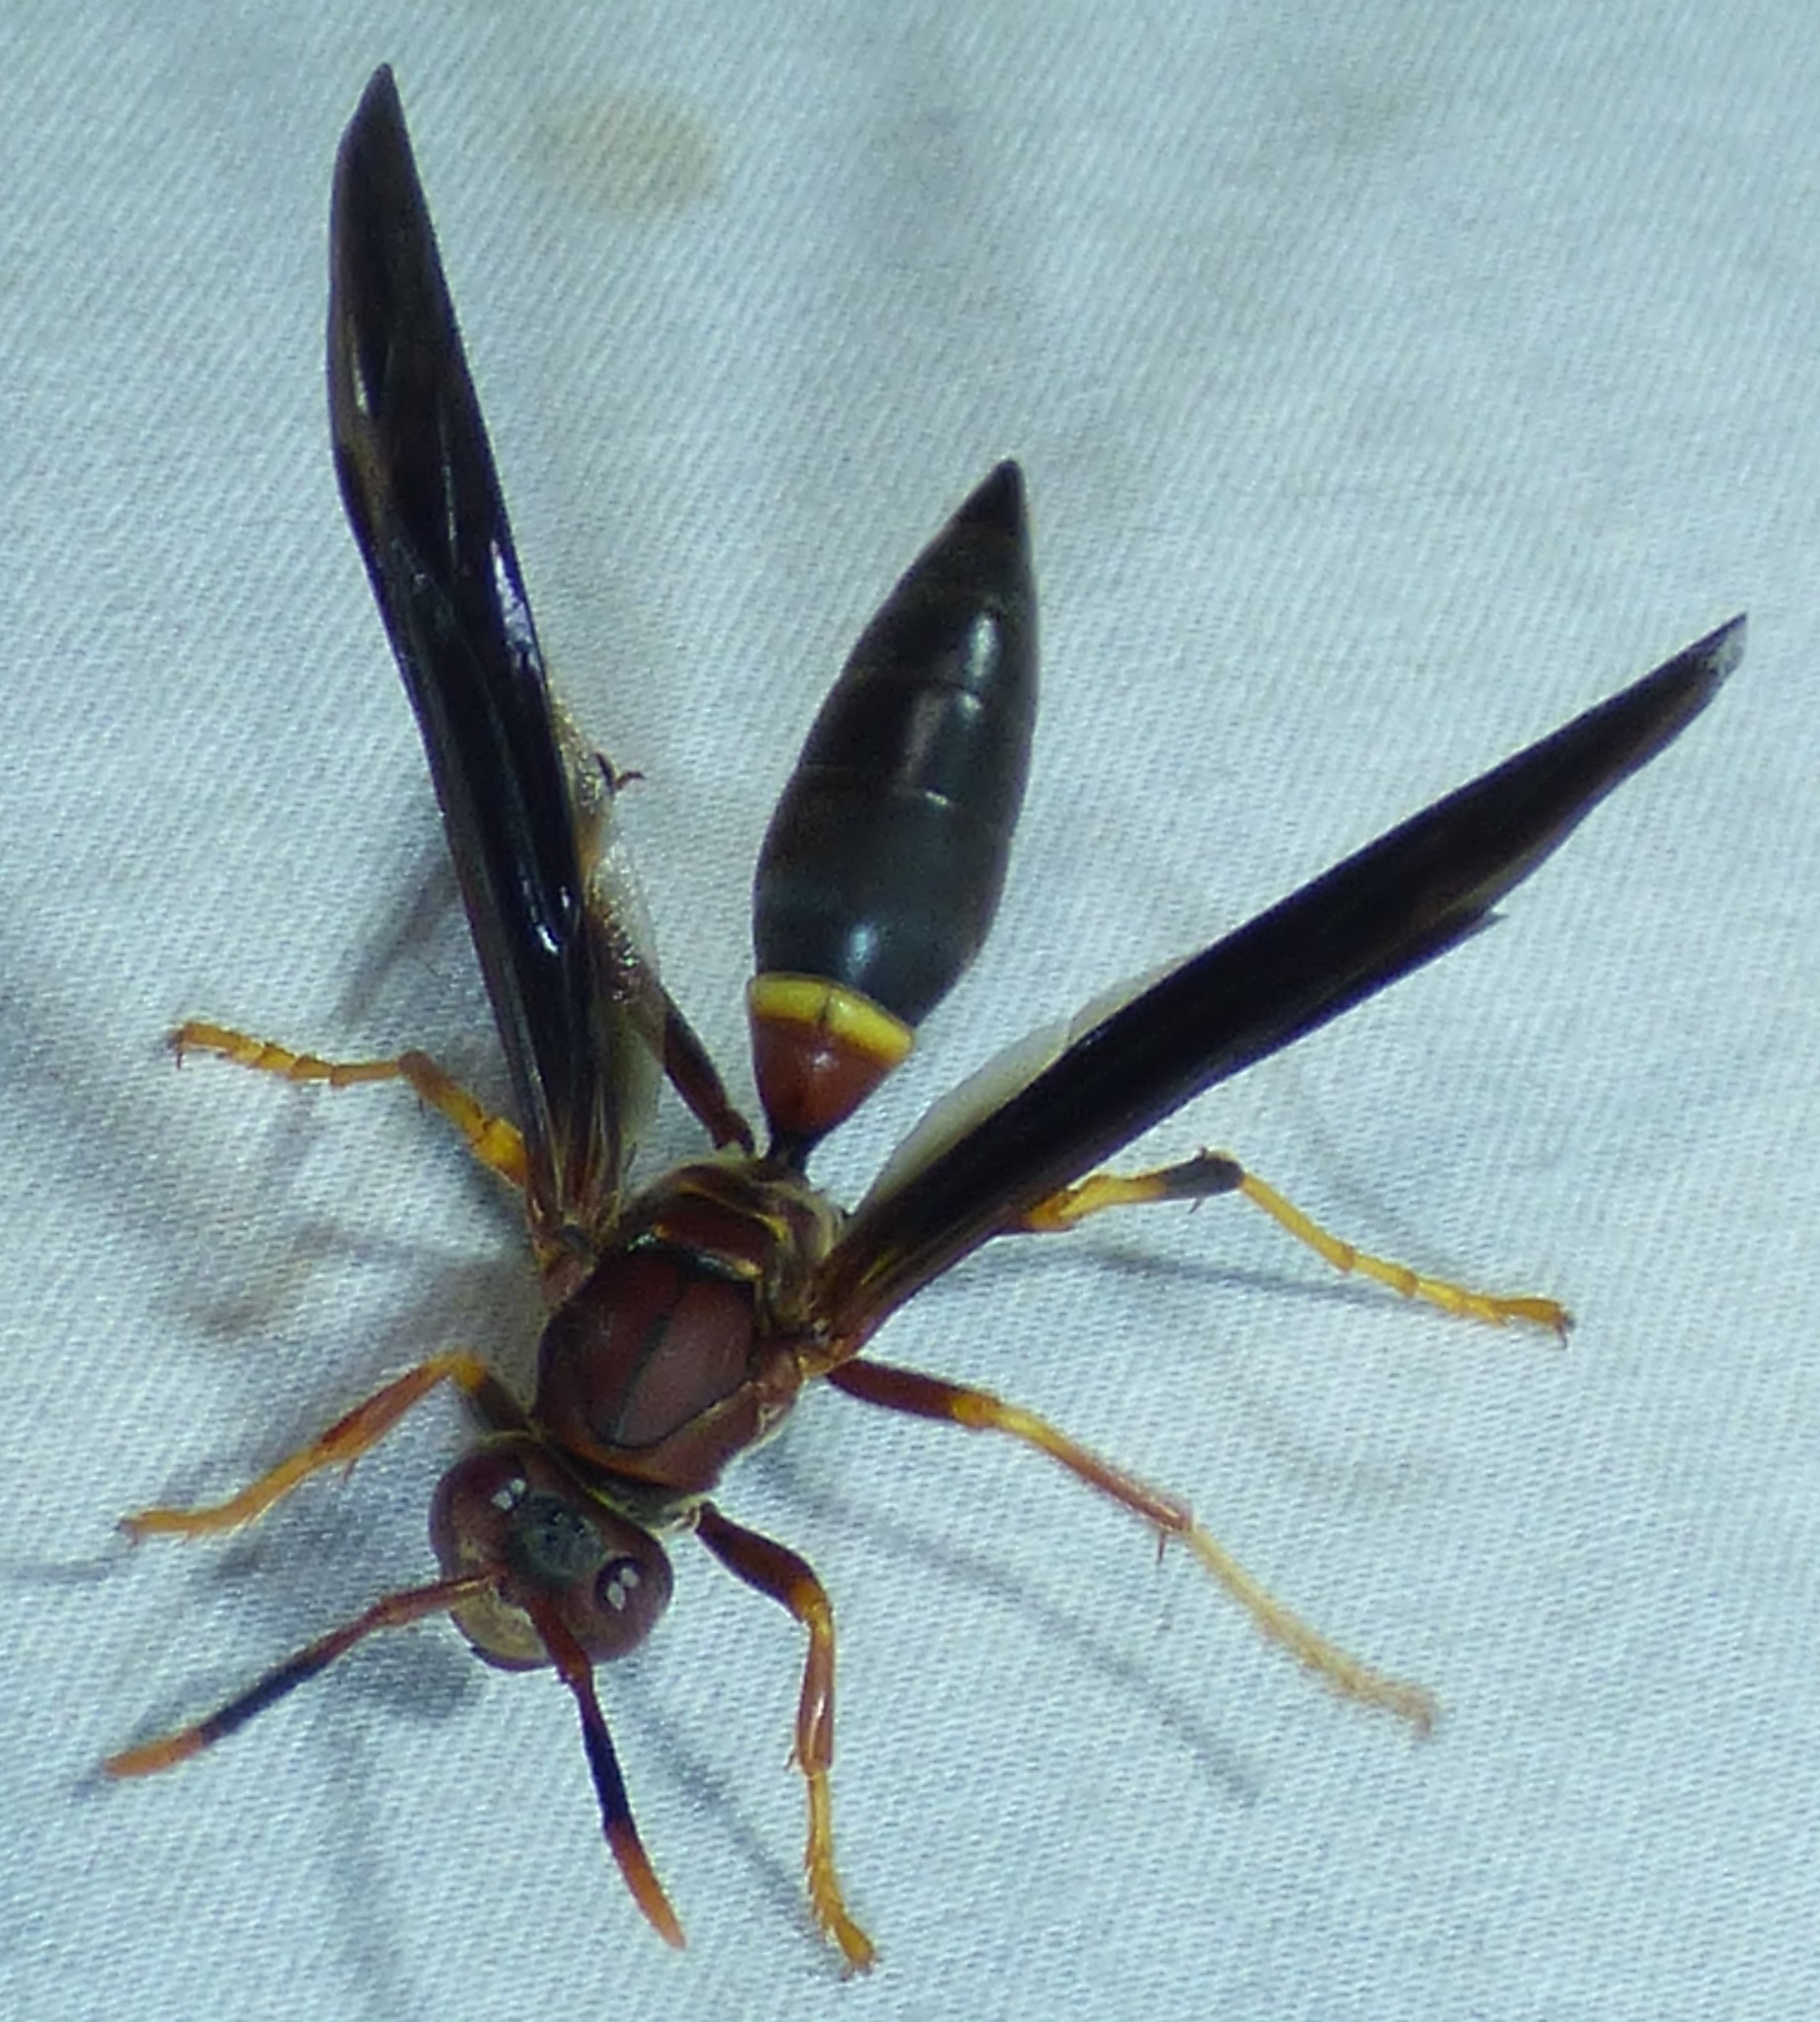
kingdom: Animalia
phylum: Arthropoda
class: Insecta
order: Hymenoptera
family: Eumenidae
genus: Polistes
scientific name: Polistes annularis
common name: Ringed paper wasp
